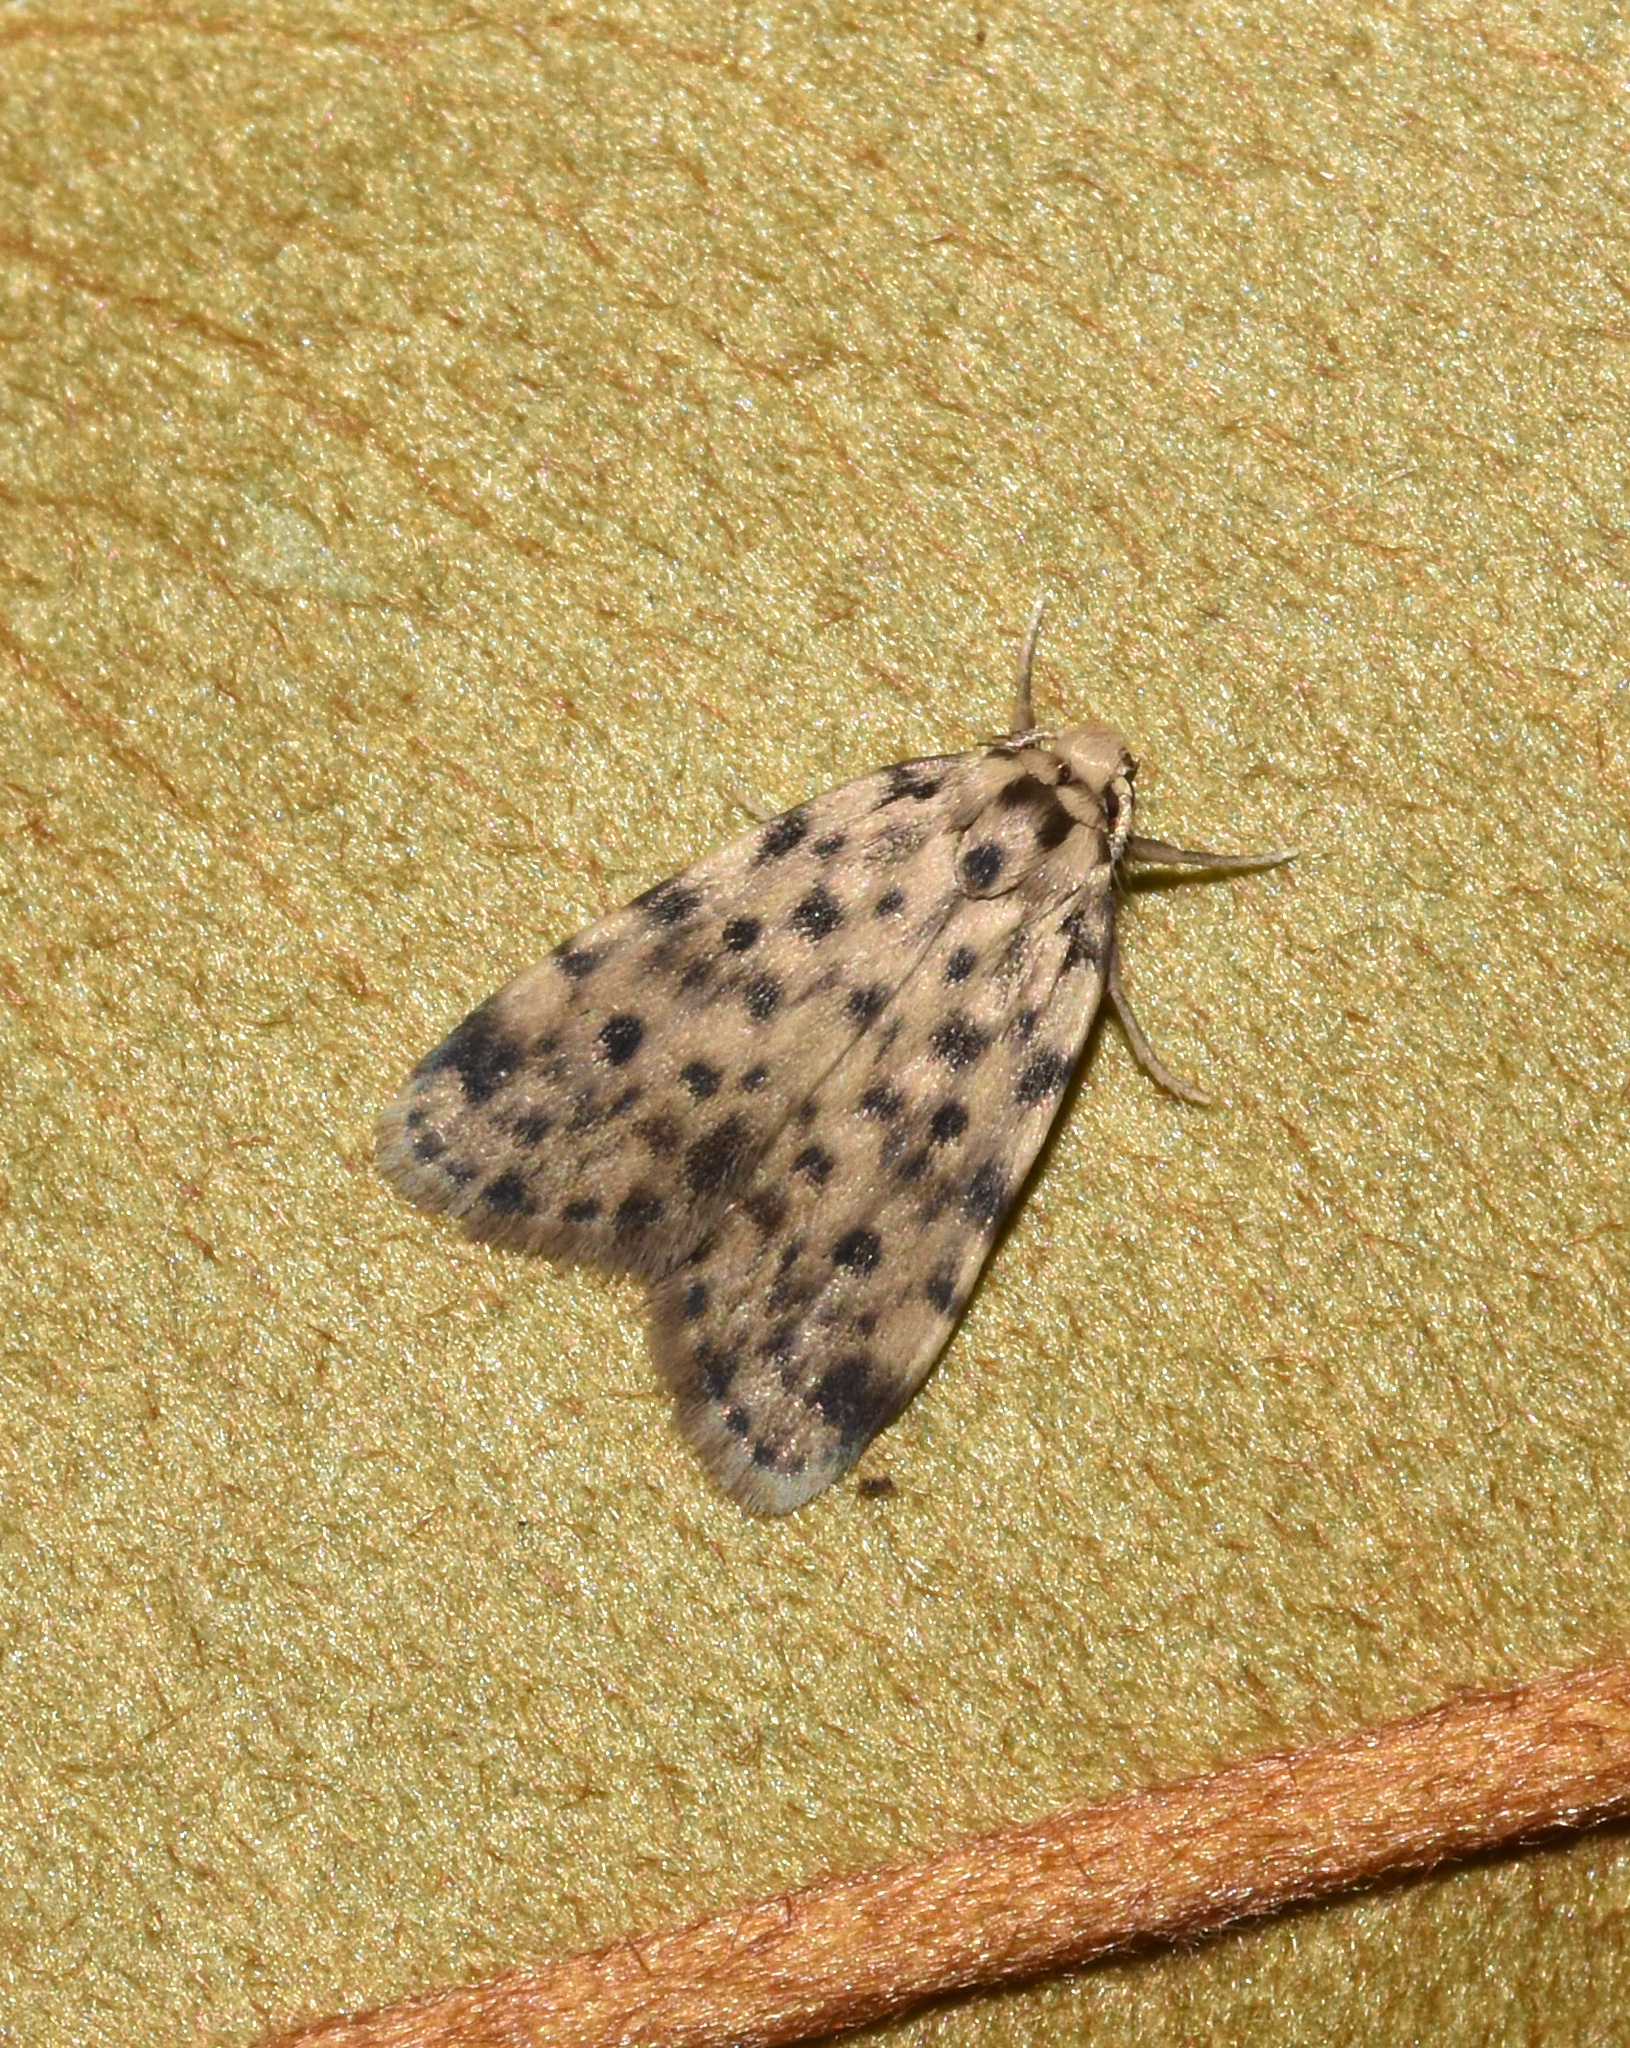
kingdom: Animalia
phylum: Arthropoda
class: Insecta
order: Lepidoptera
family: Erebidae
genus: Siccia
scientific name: Siccia punctipennis
